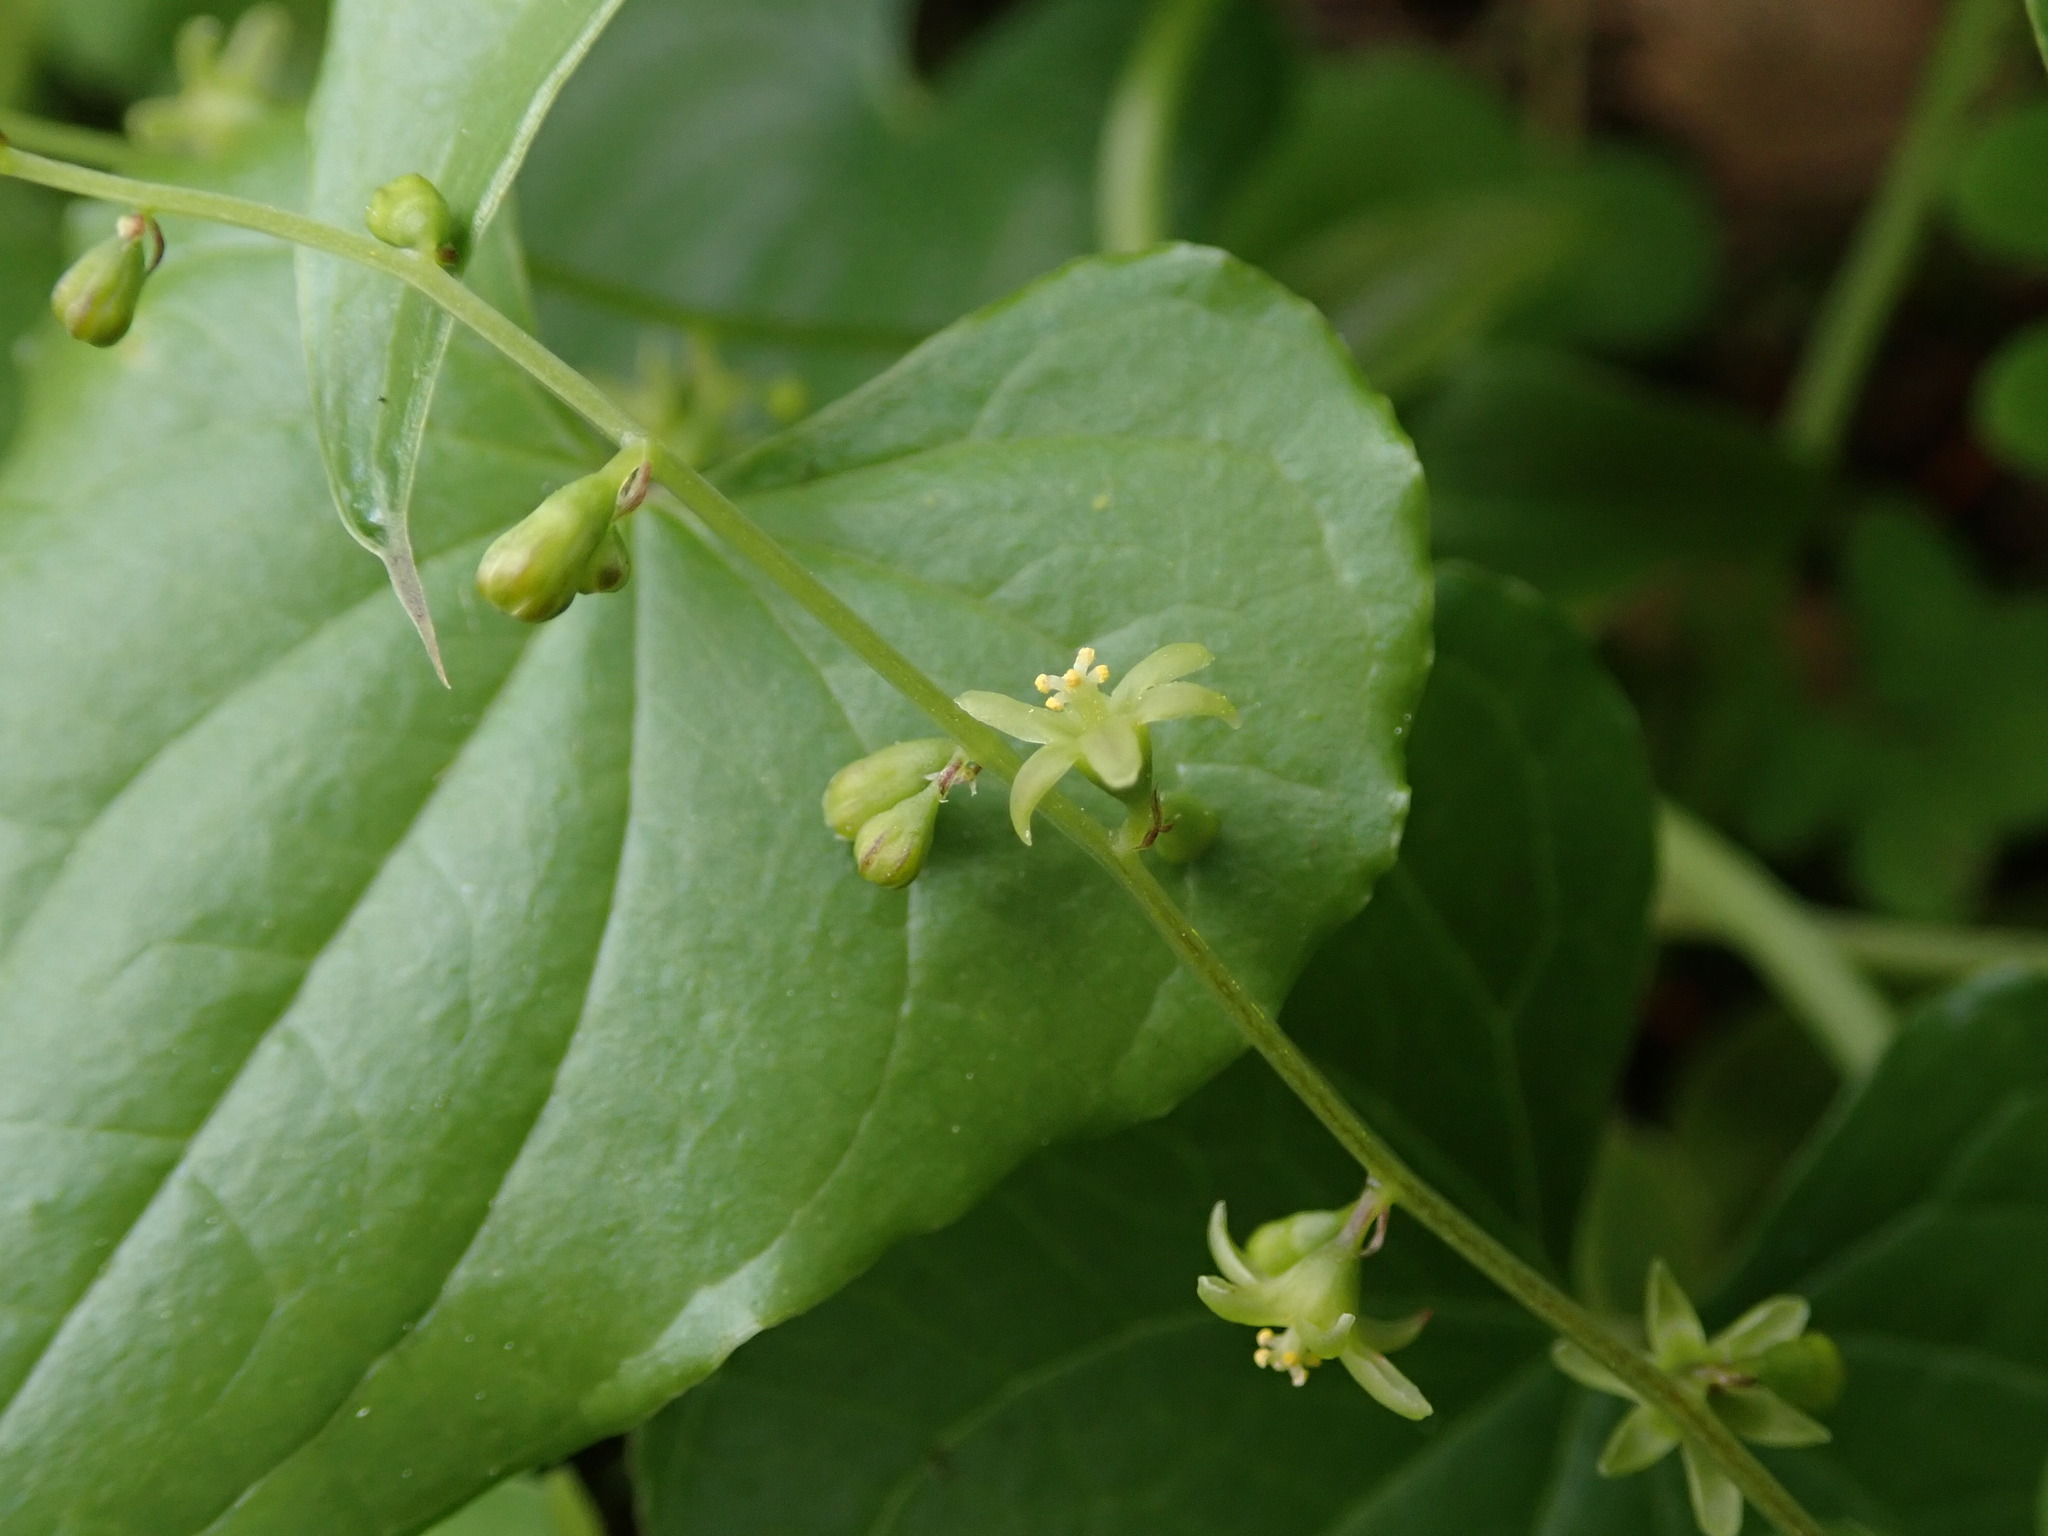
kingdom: Plantae
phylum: Tracheophyta
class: Liliopsida
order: Dioscoreales
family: Dioscoreaceae
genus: Dioscorea
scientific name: Dioscorea communis
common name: Black-bindweed
